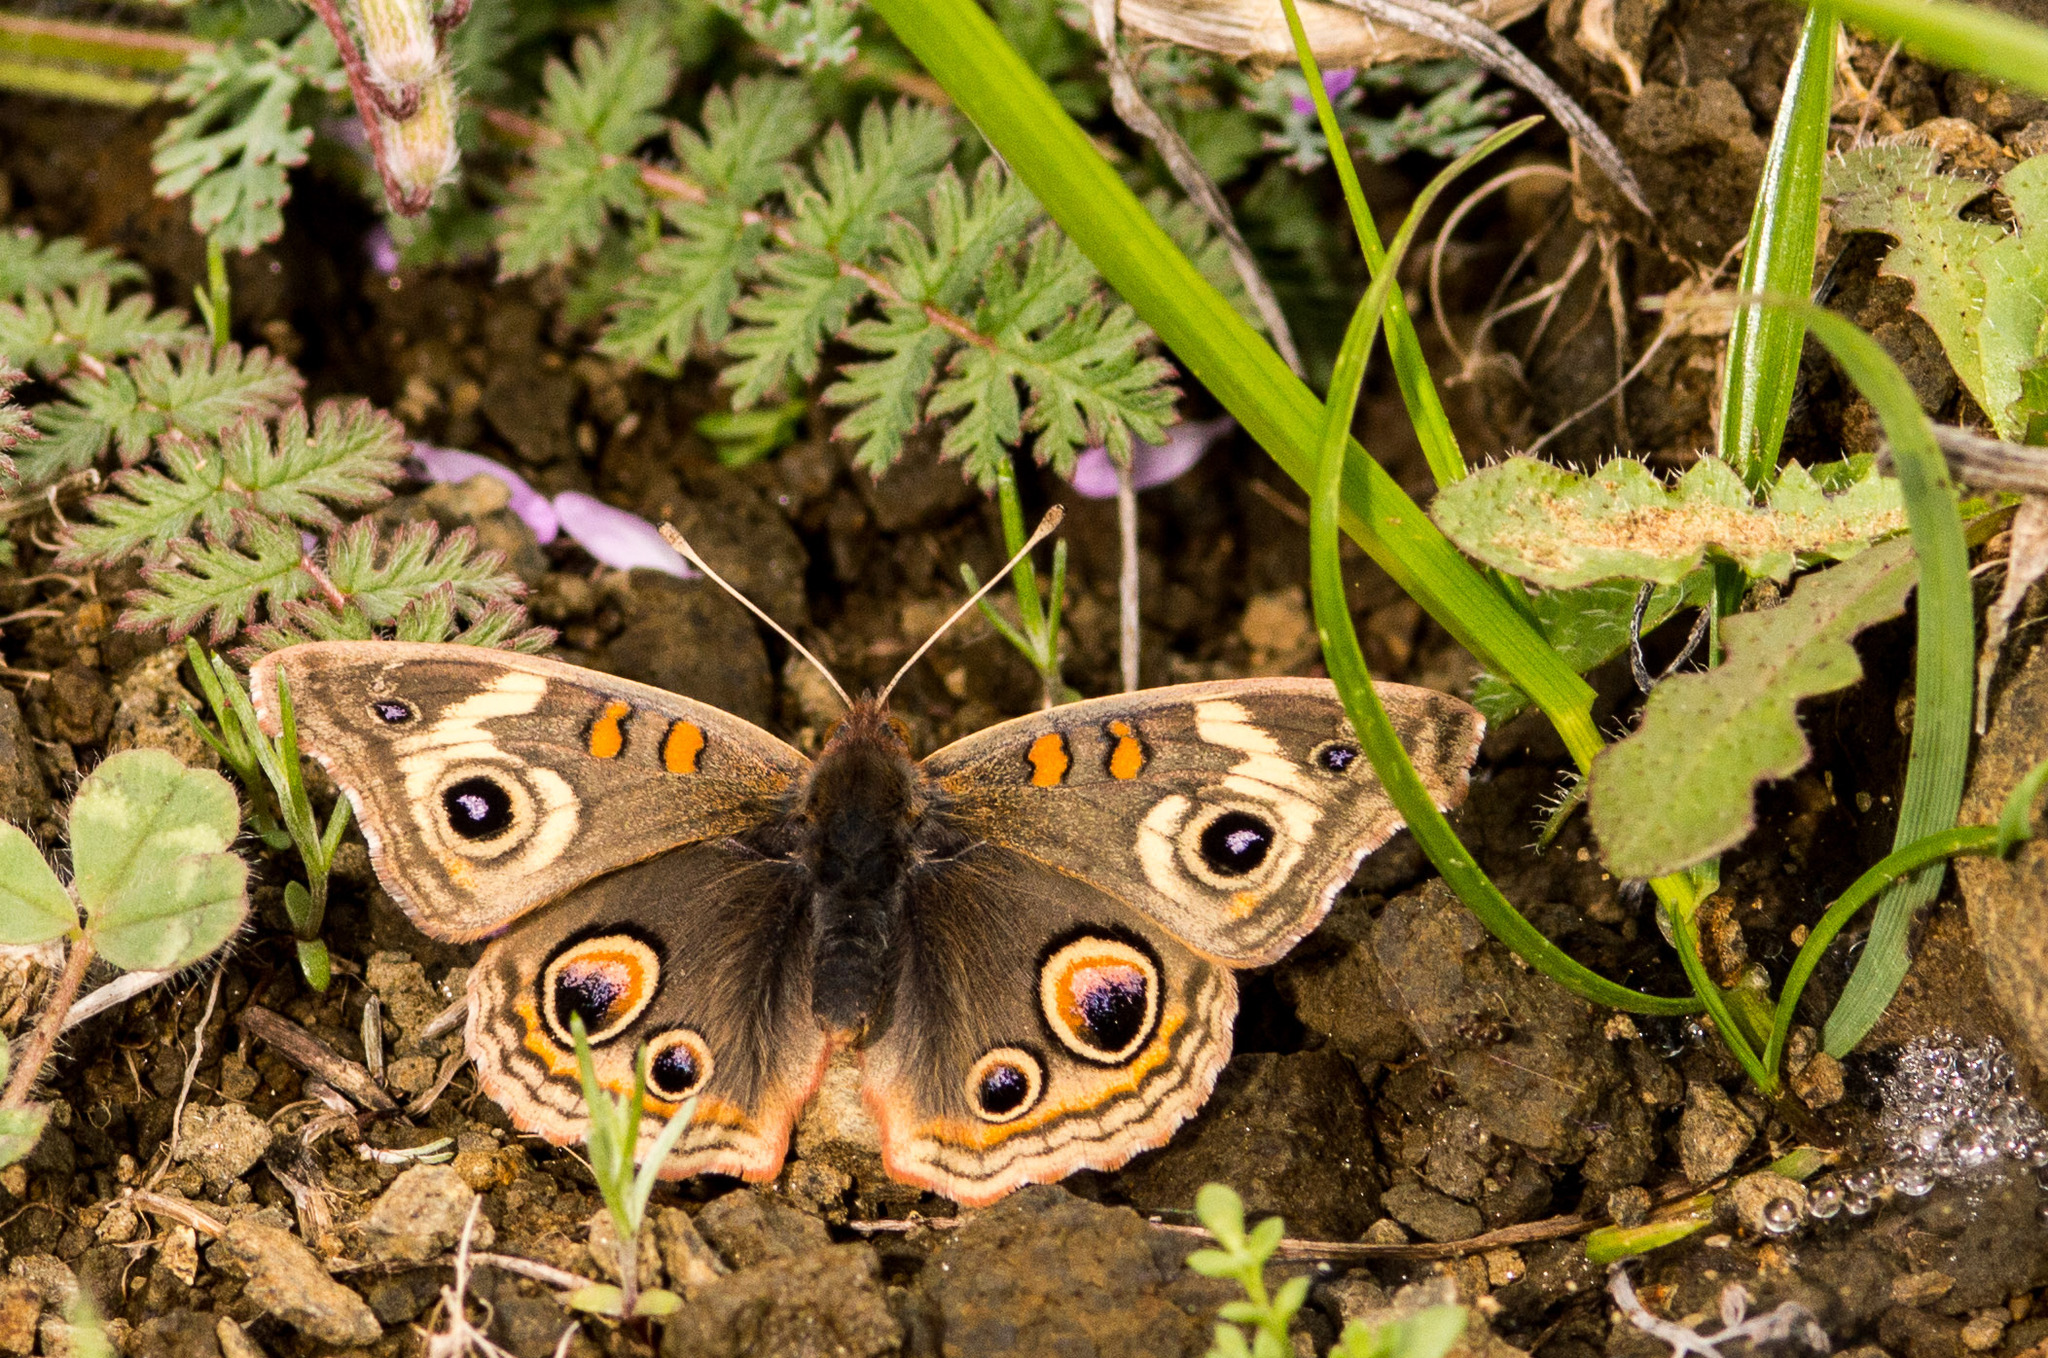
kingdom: Animalia
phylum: Arthropoda
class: Insecta
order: Lepidoptera
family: Nymphalidae
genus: Junonia
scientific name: Junonia grisea
